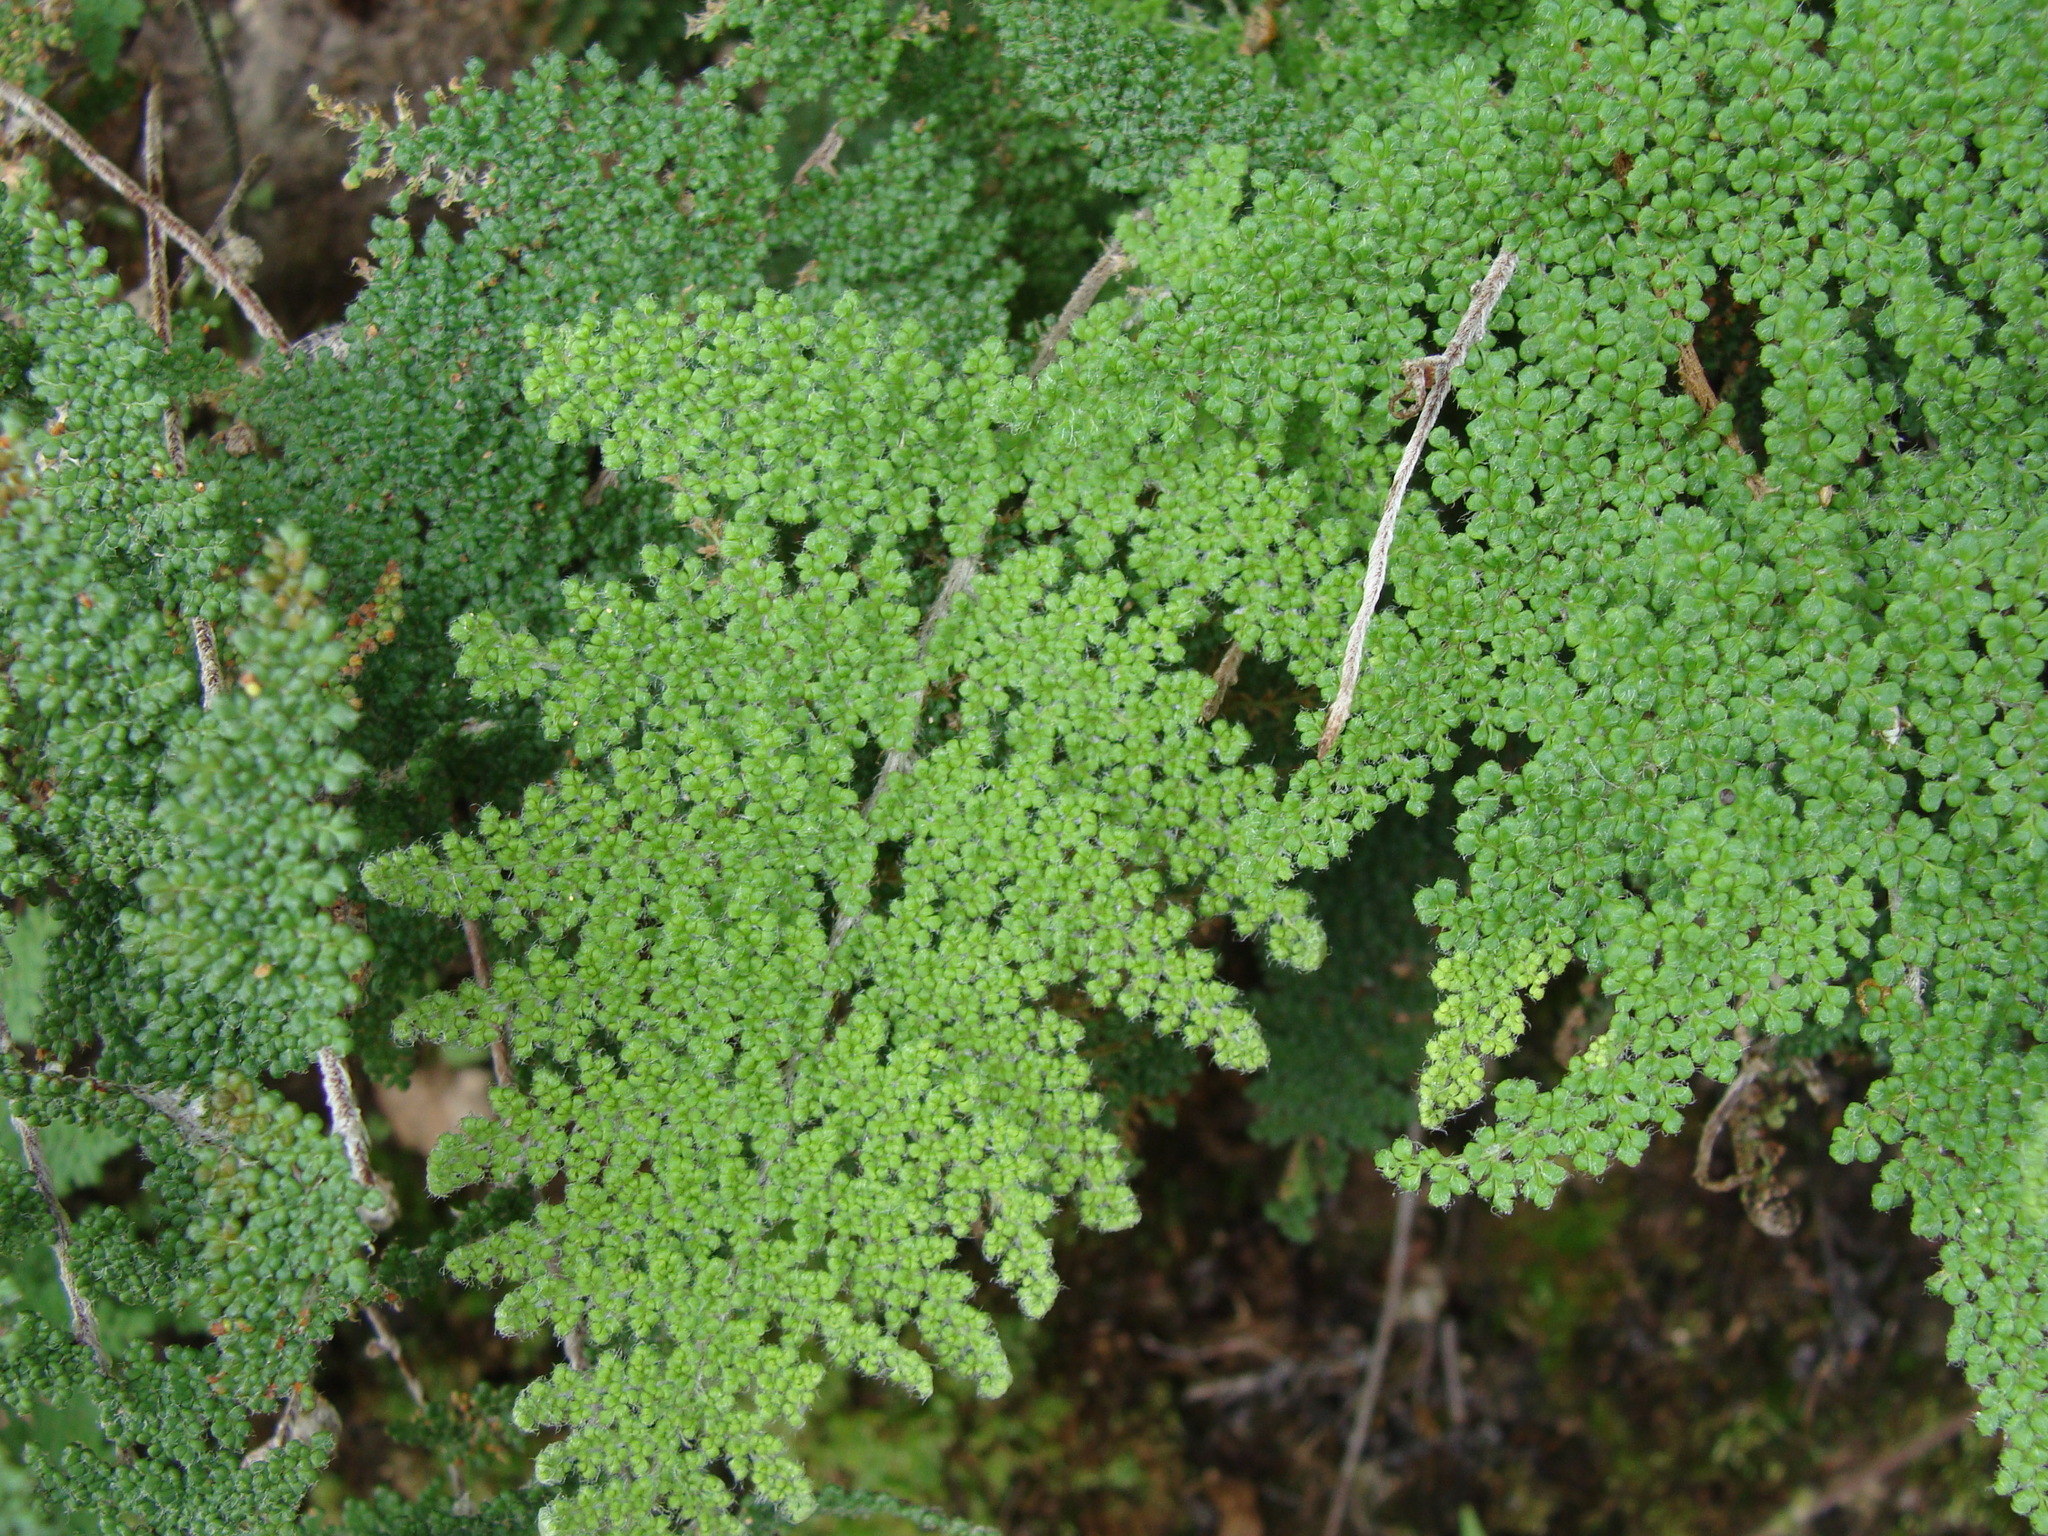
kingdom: Plantae
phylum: Tracheophyta
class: Polypodiopsida
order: Polypodiales
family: Pteridaceae
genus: Myriopteris
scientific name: Myriopteris myriophylla
